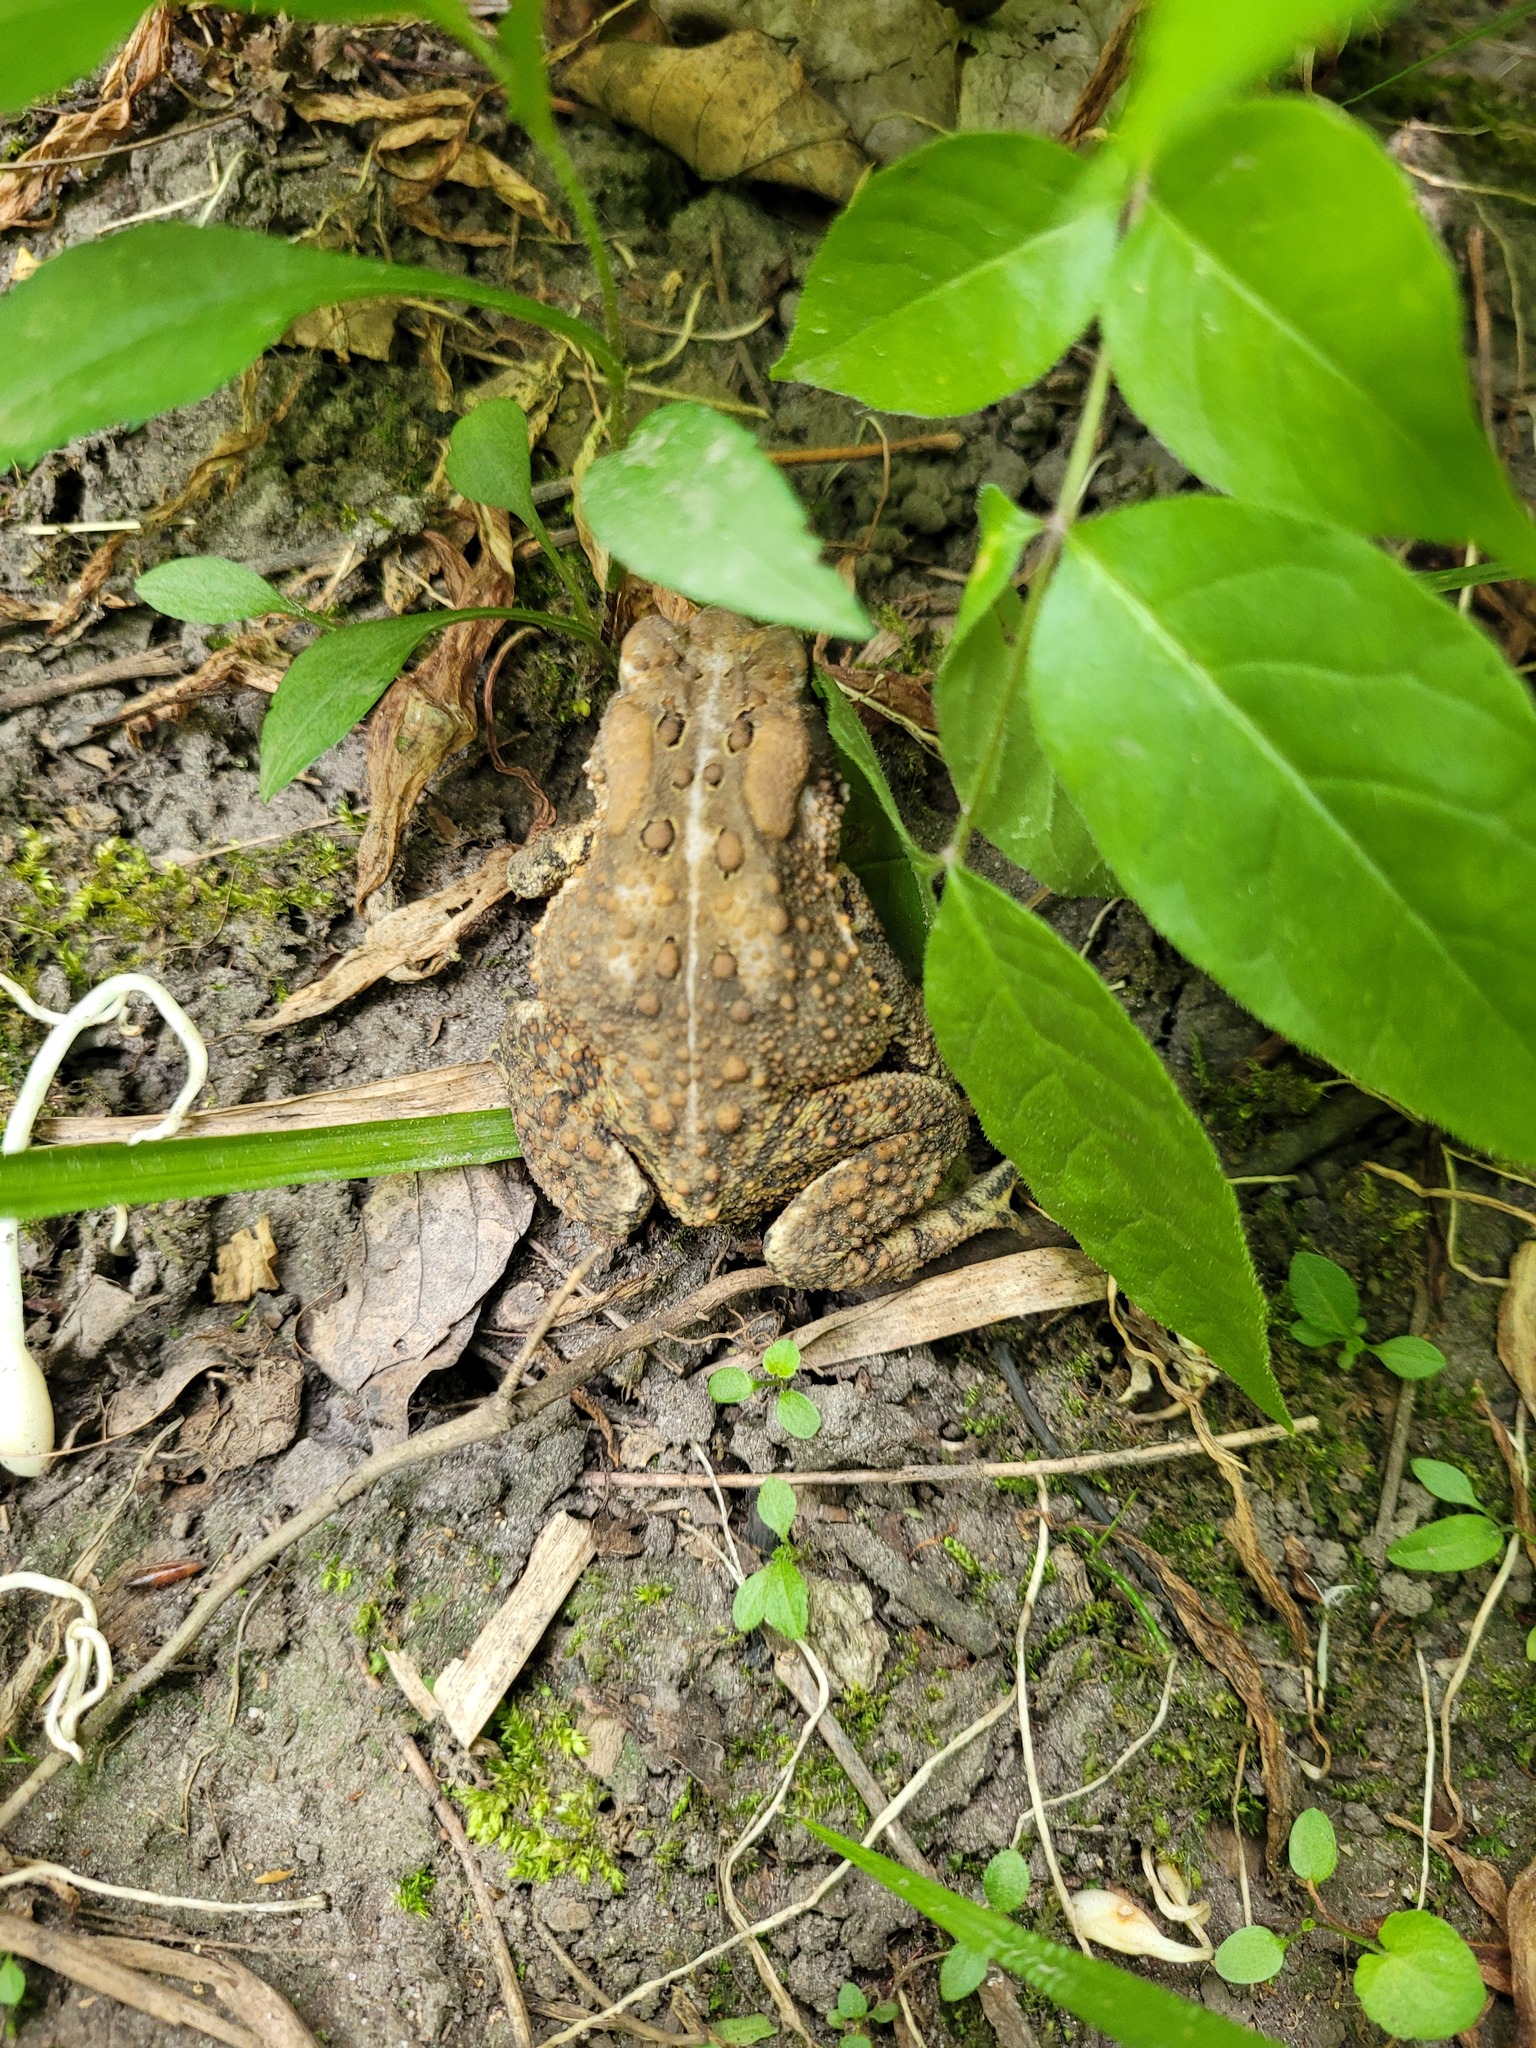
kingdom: Animalia
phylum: Chordata
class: Amphibia
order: Anura
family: Bufonidae
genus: Anaxyrus
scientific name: Anaxyrus americanus
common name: American toad
